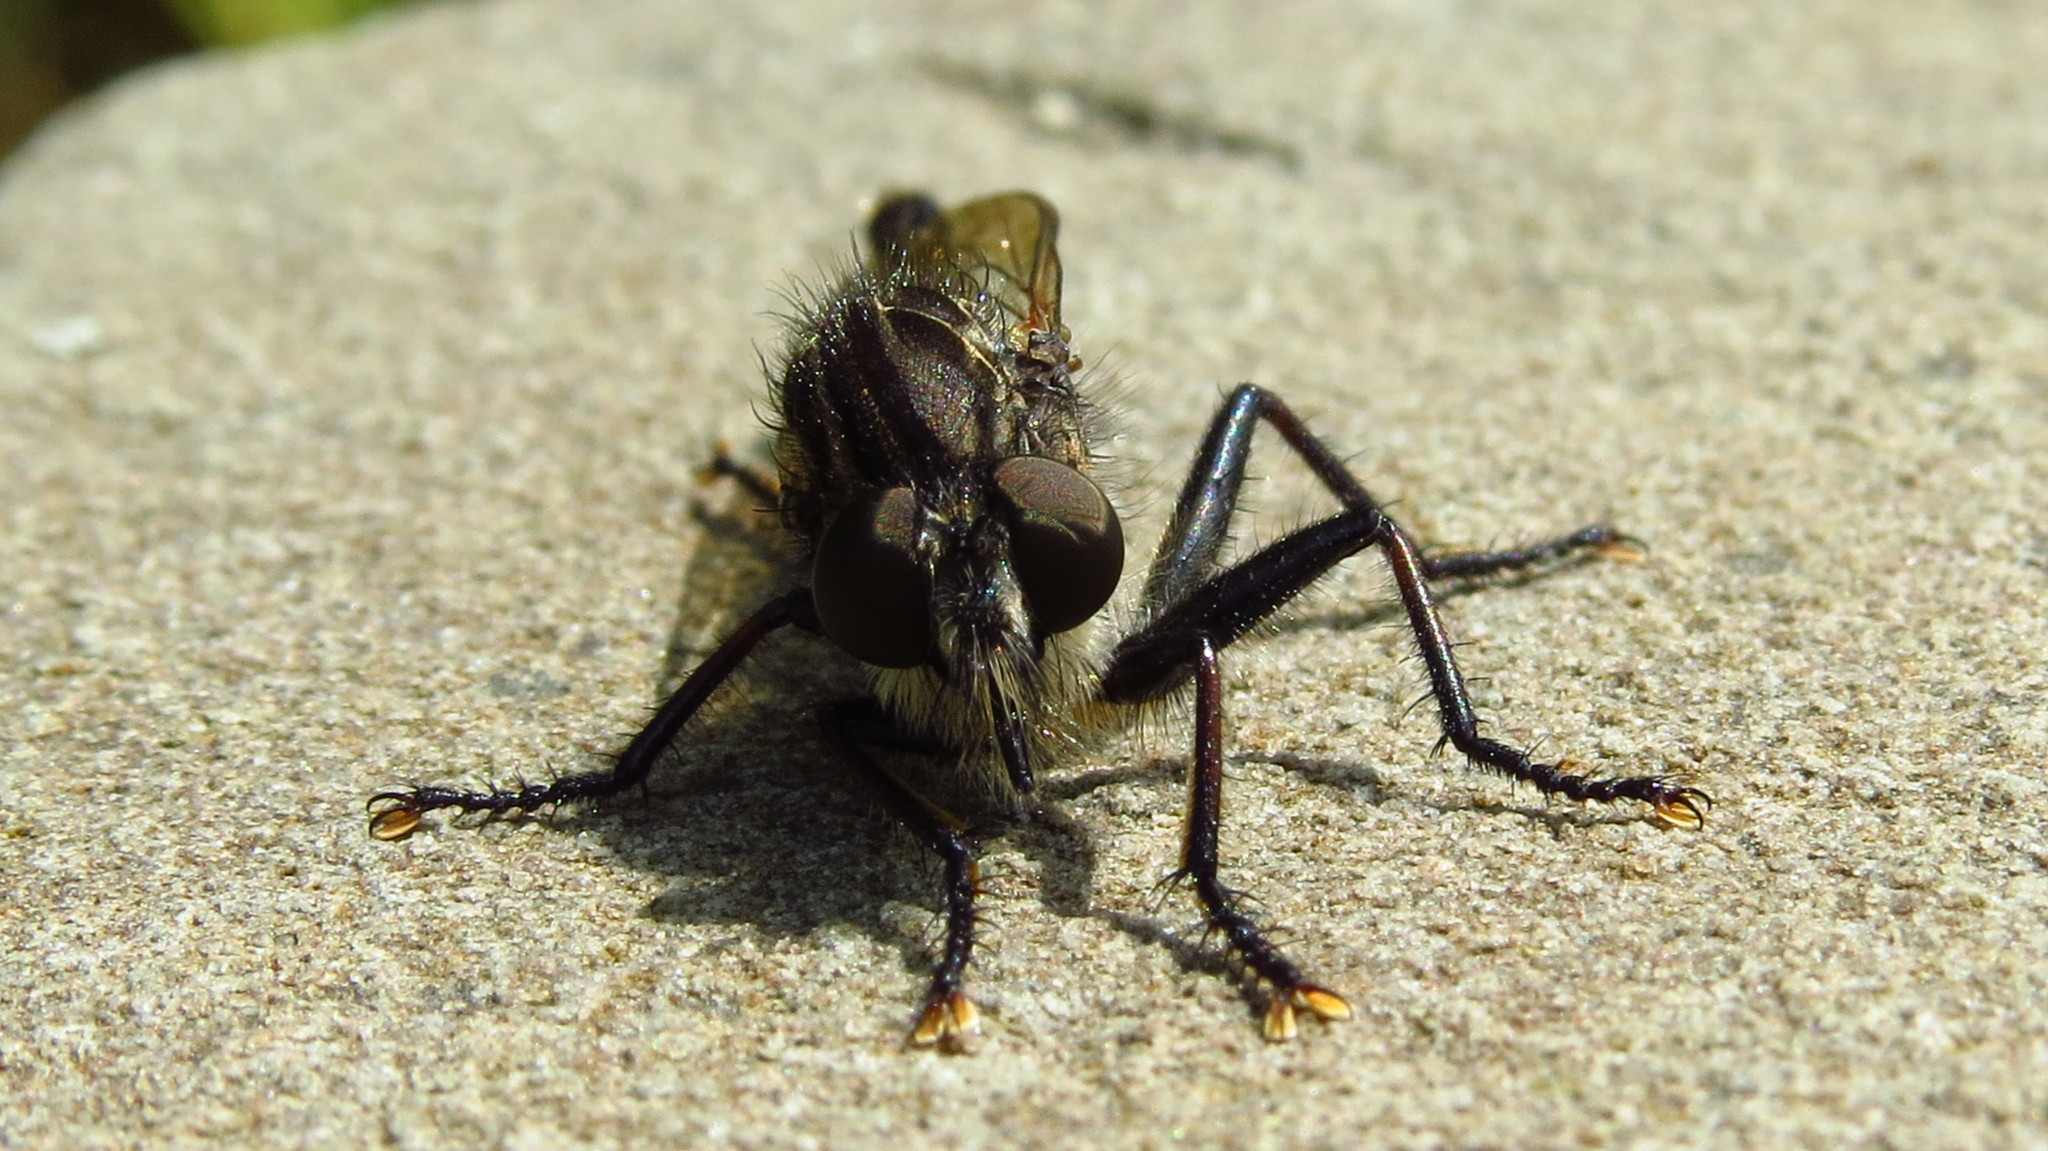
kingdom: Animalia
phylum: Arthropoda
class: Insecta
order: Diptera
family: Asilidae
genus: Efferia
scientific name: Efferia aestuans
